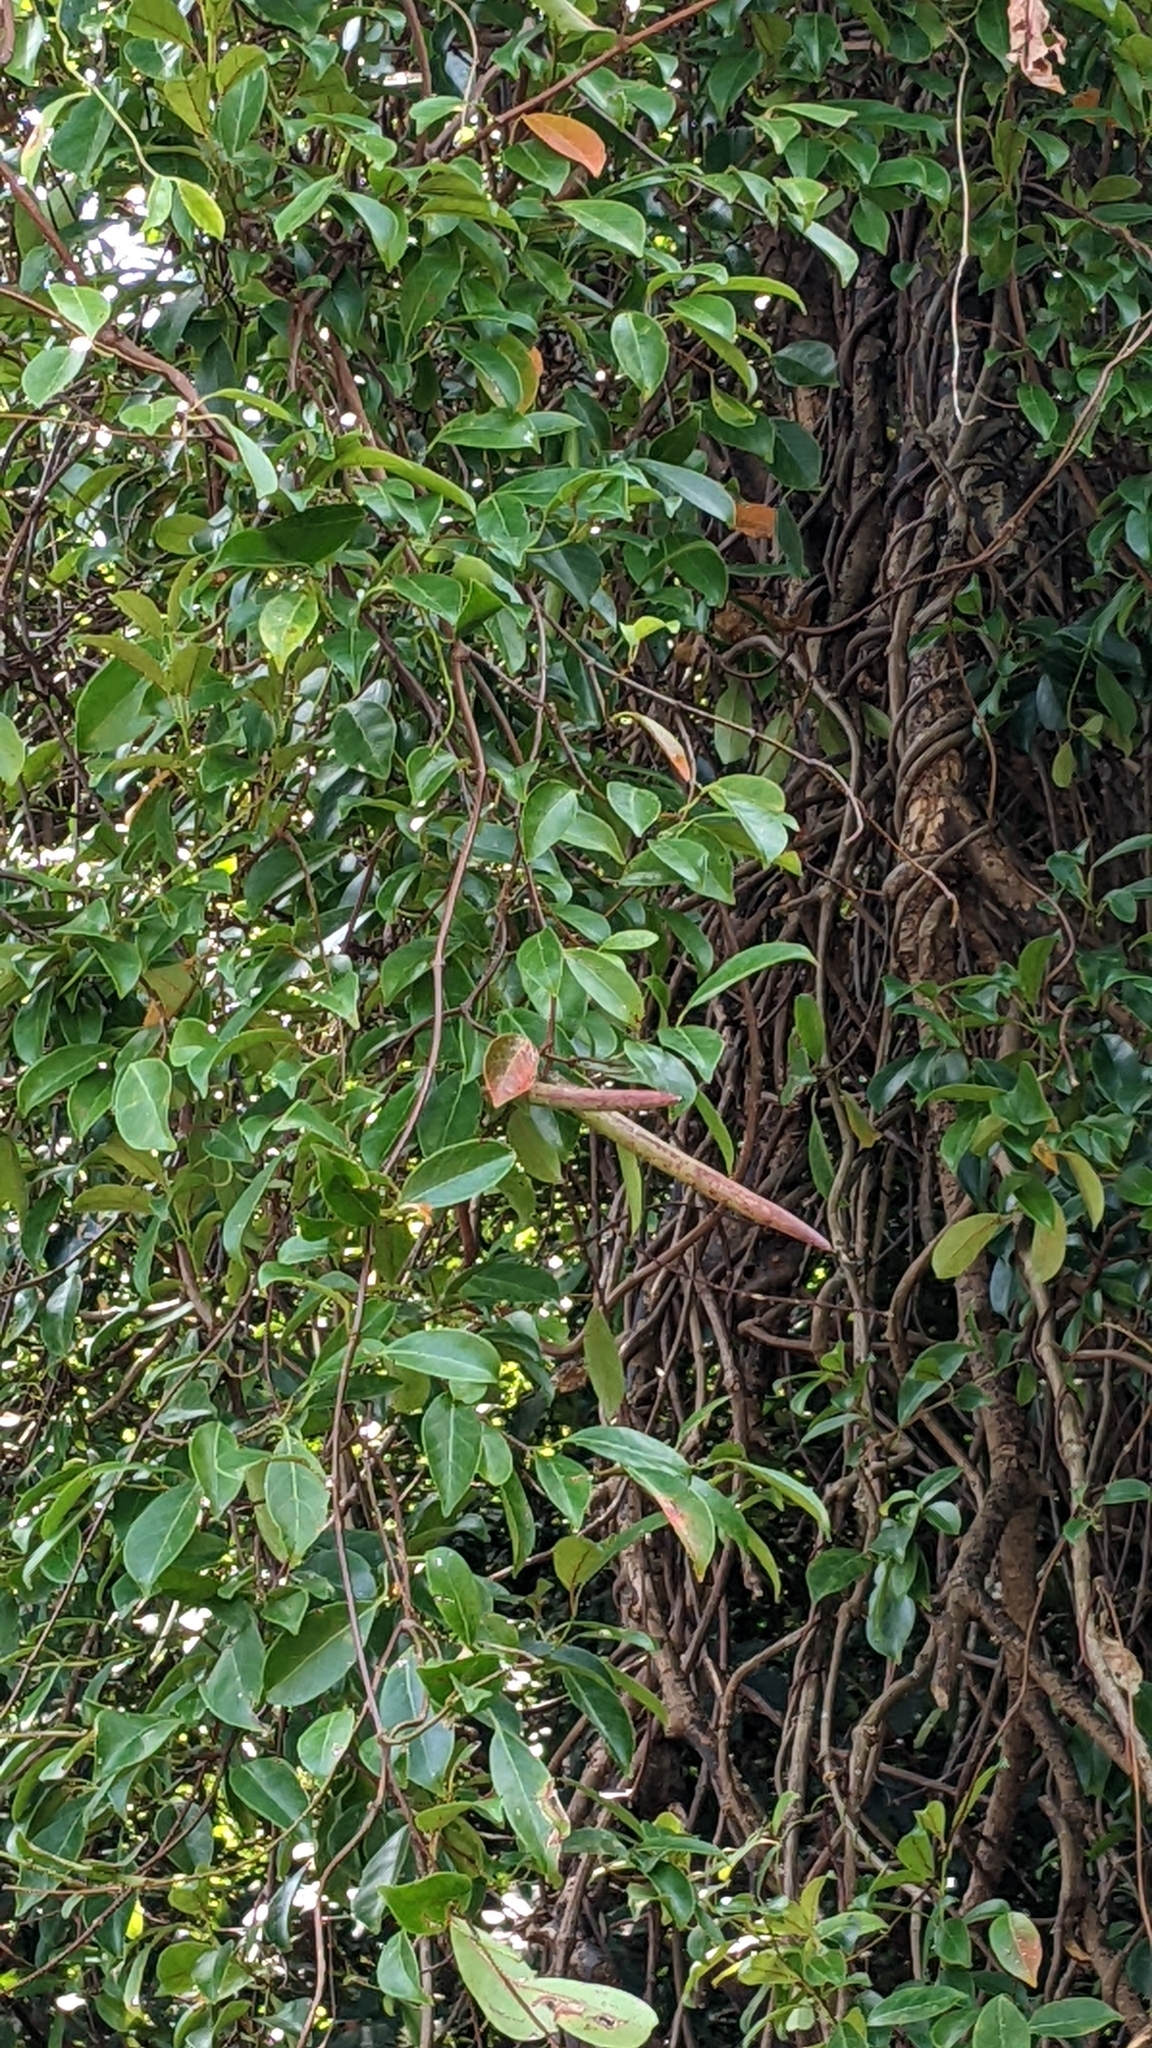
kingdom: Plantae
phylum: Tracheophyta
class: Magnoliopsida
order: Gentianales
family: Apocynaceae
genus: Urceola
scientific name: Urceola rosea
